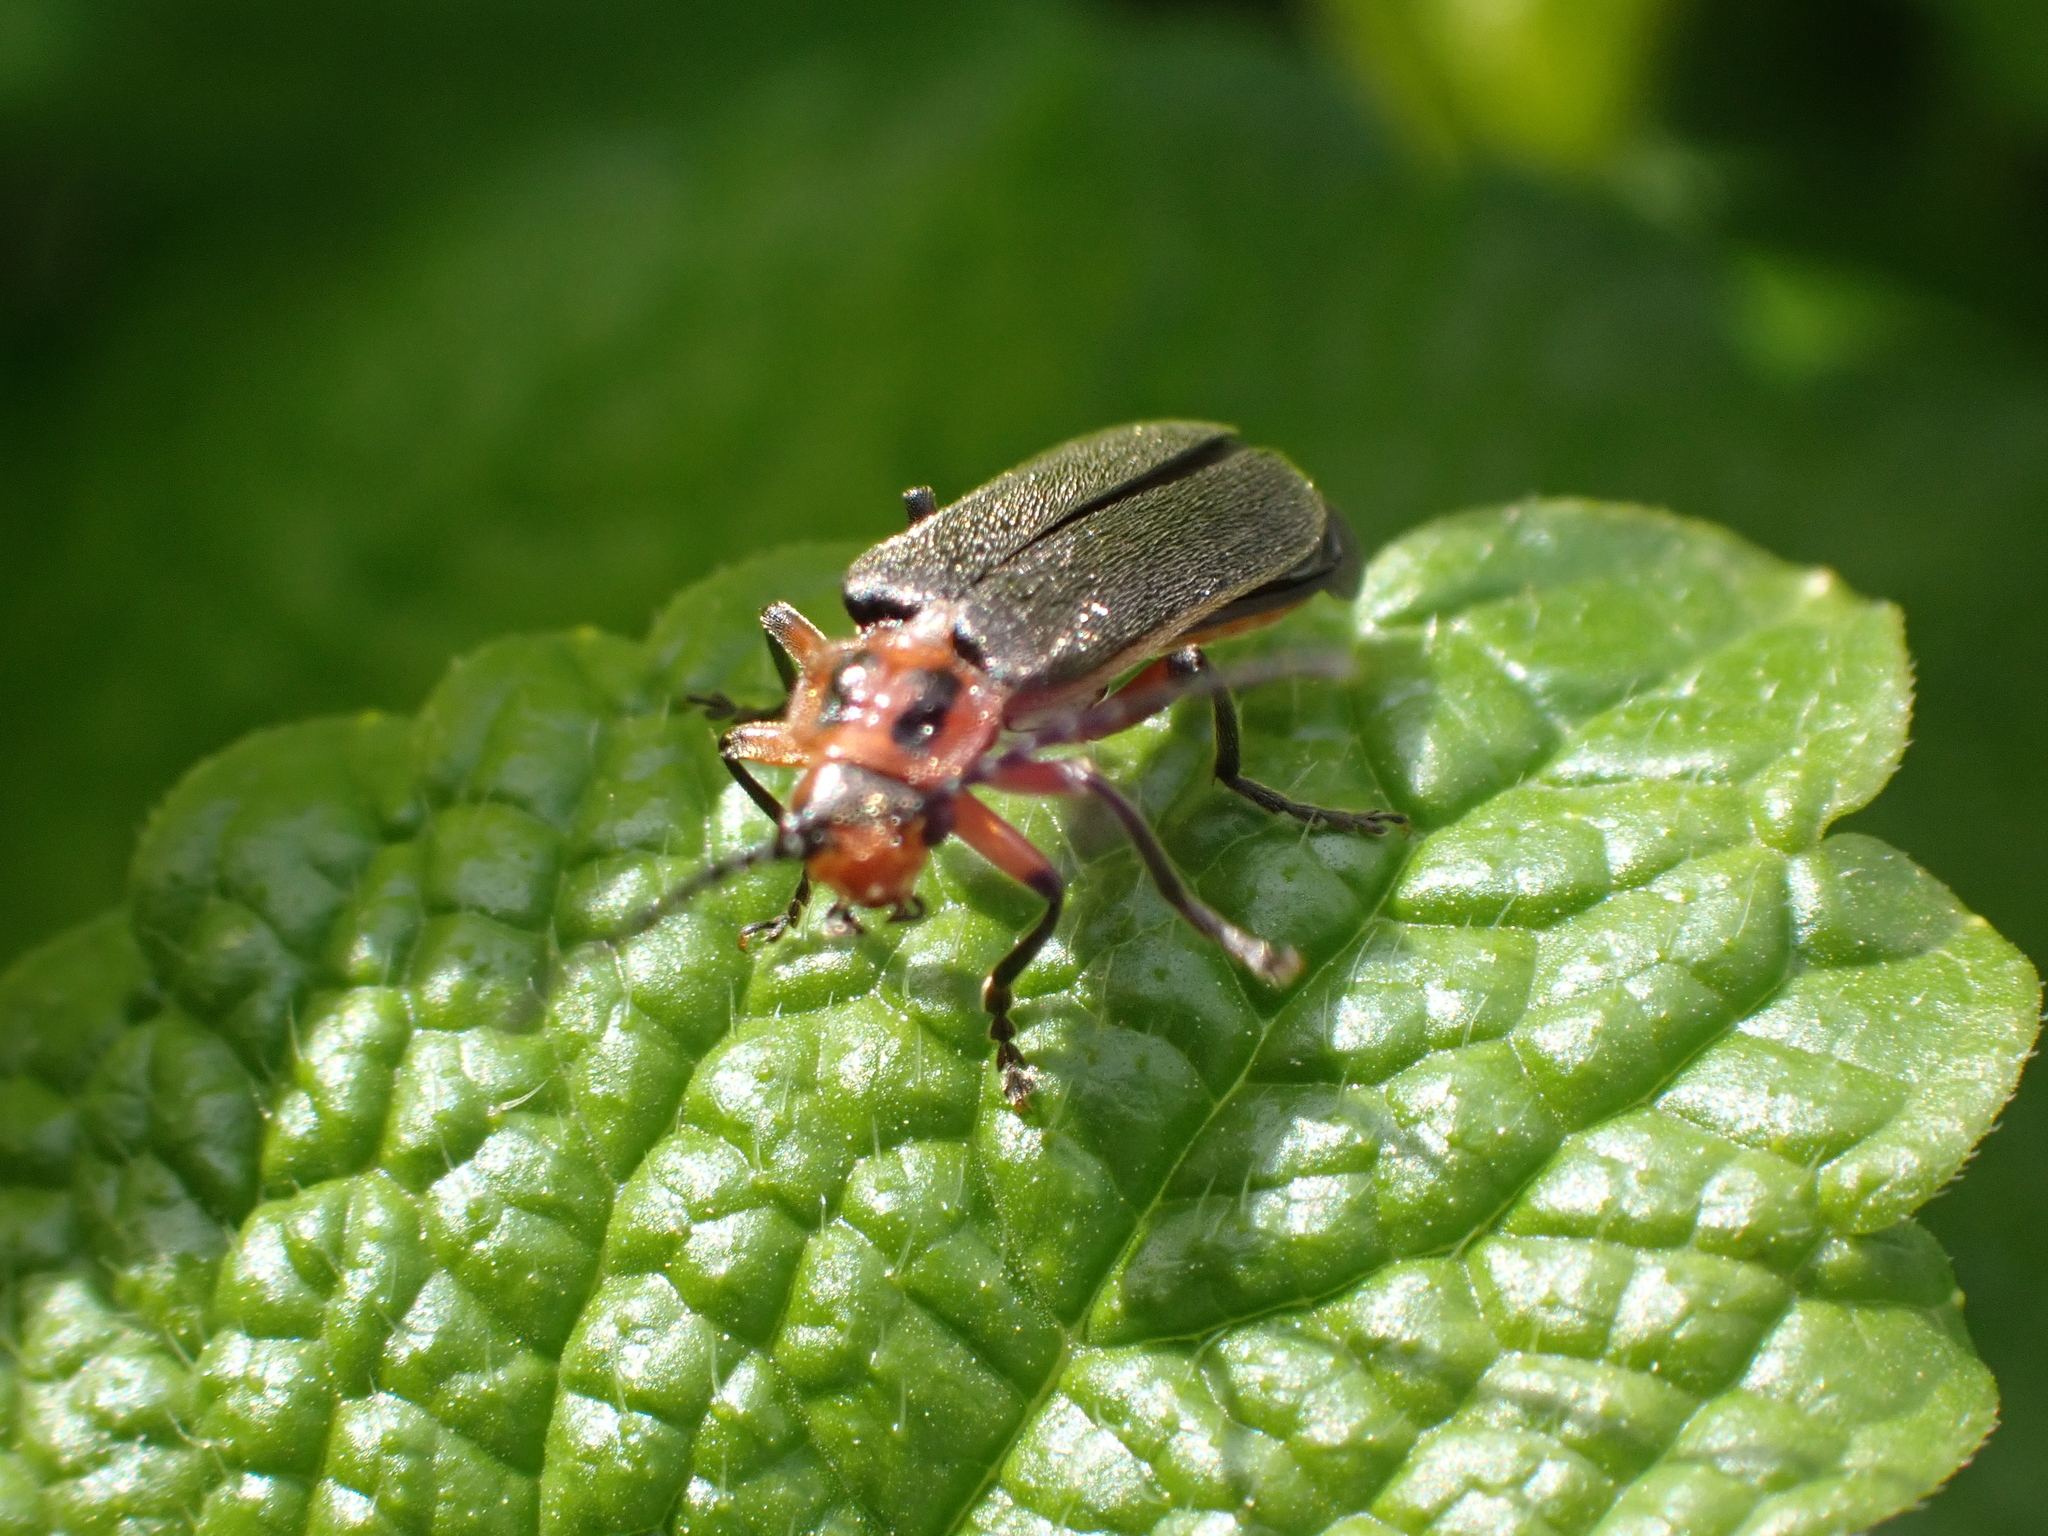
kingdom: Animalia
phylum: Arthropoda
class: Insecta
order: Coleoptera
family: Cantharidae
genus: Atalantycha
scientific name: Atalantycha bilineata
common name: Two-lined leatherwing
